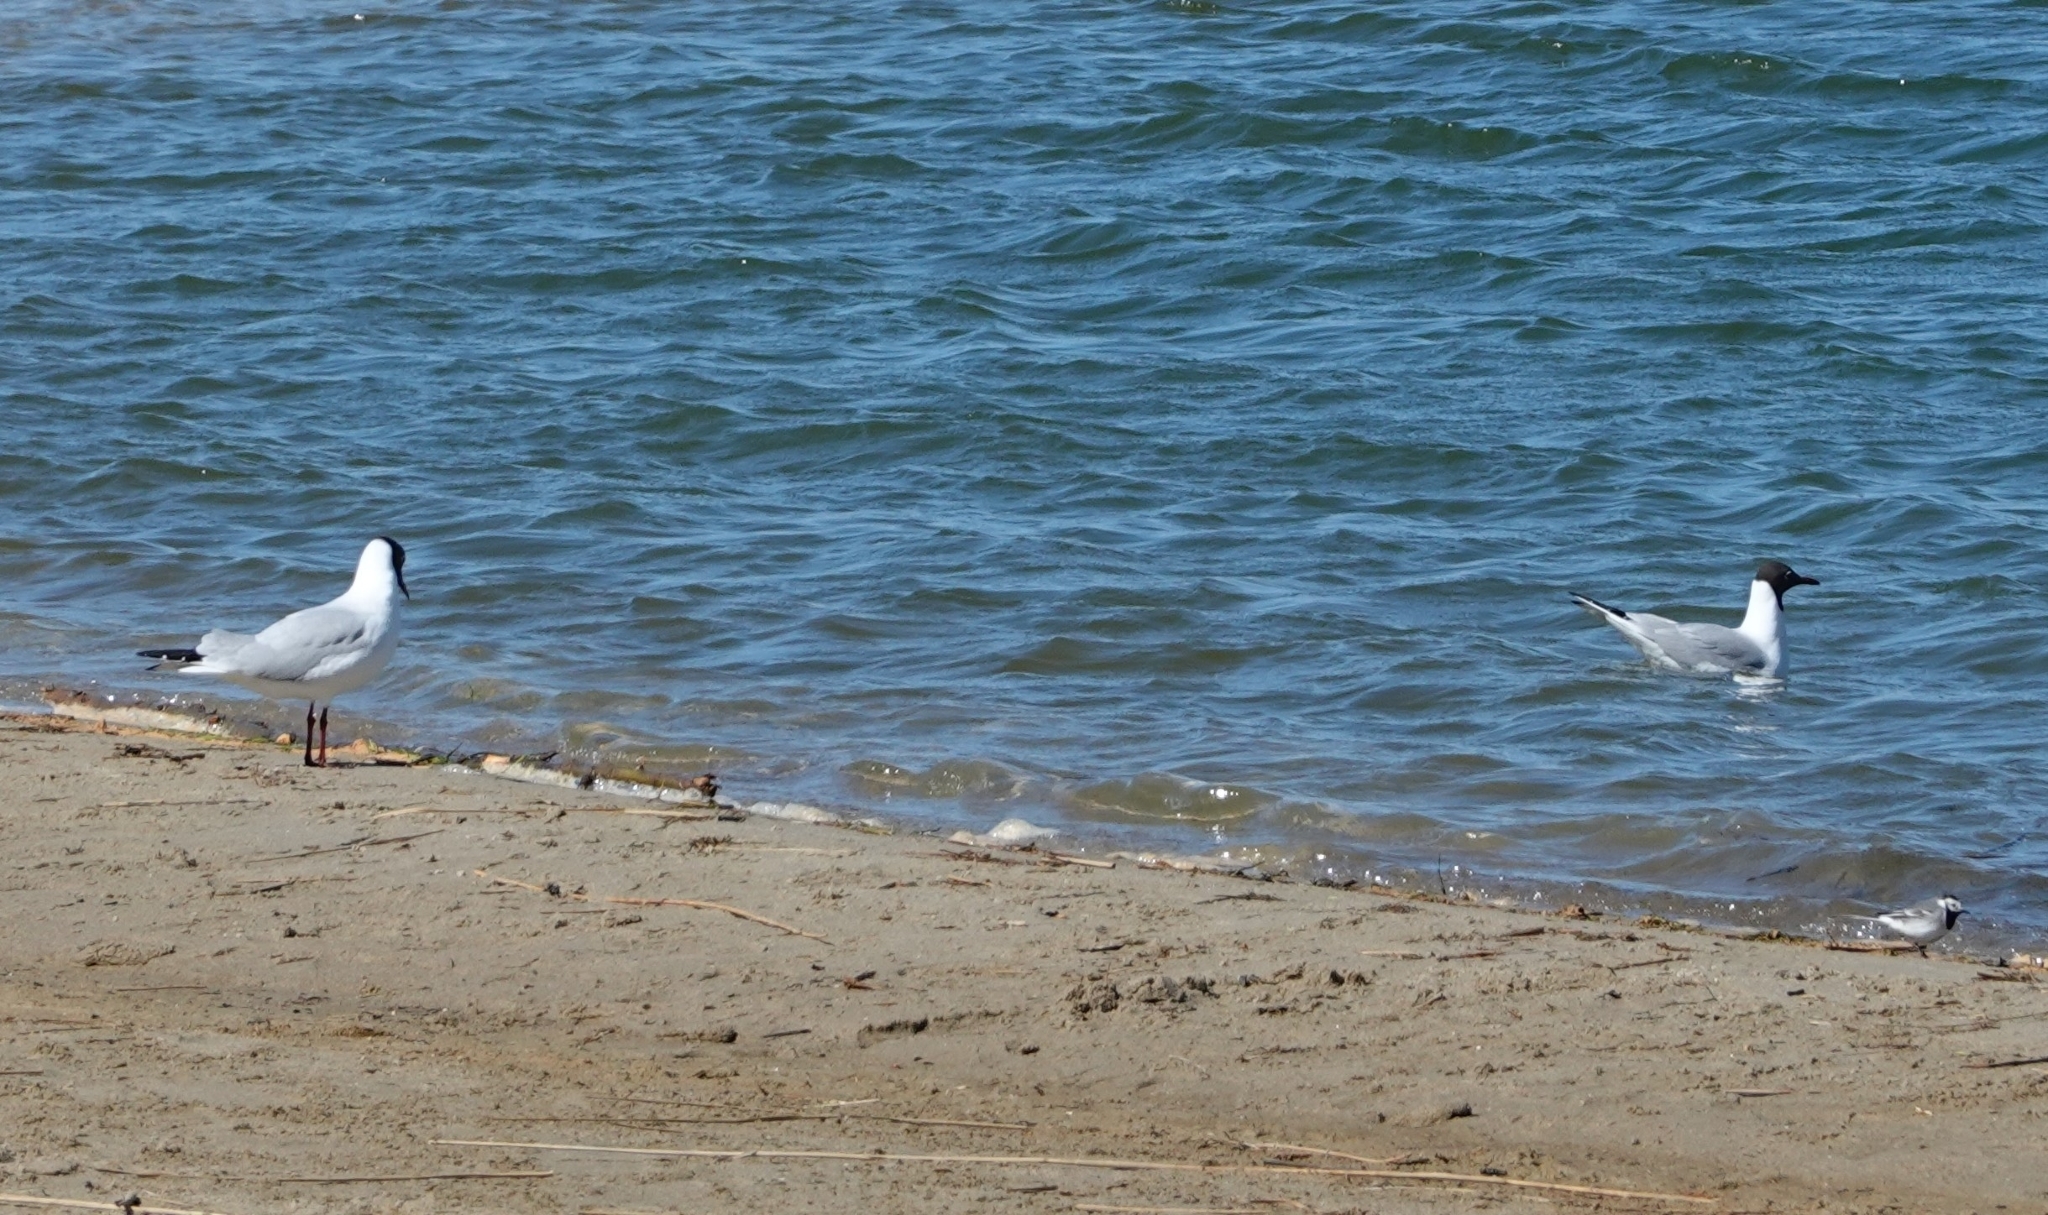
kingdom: Animalia
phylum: Chordata
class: Aves
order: Charadriiformes
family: Laridae
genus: Chroicocephalus
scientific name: Chroicocephalus ridibundus
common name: Black-headed gull
